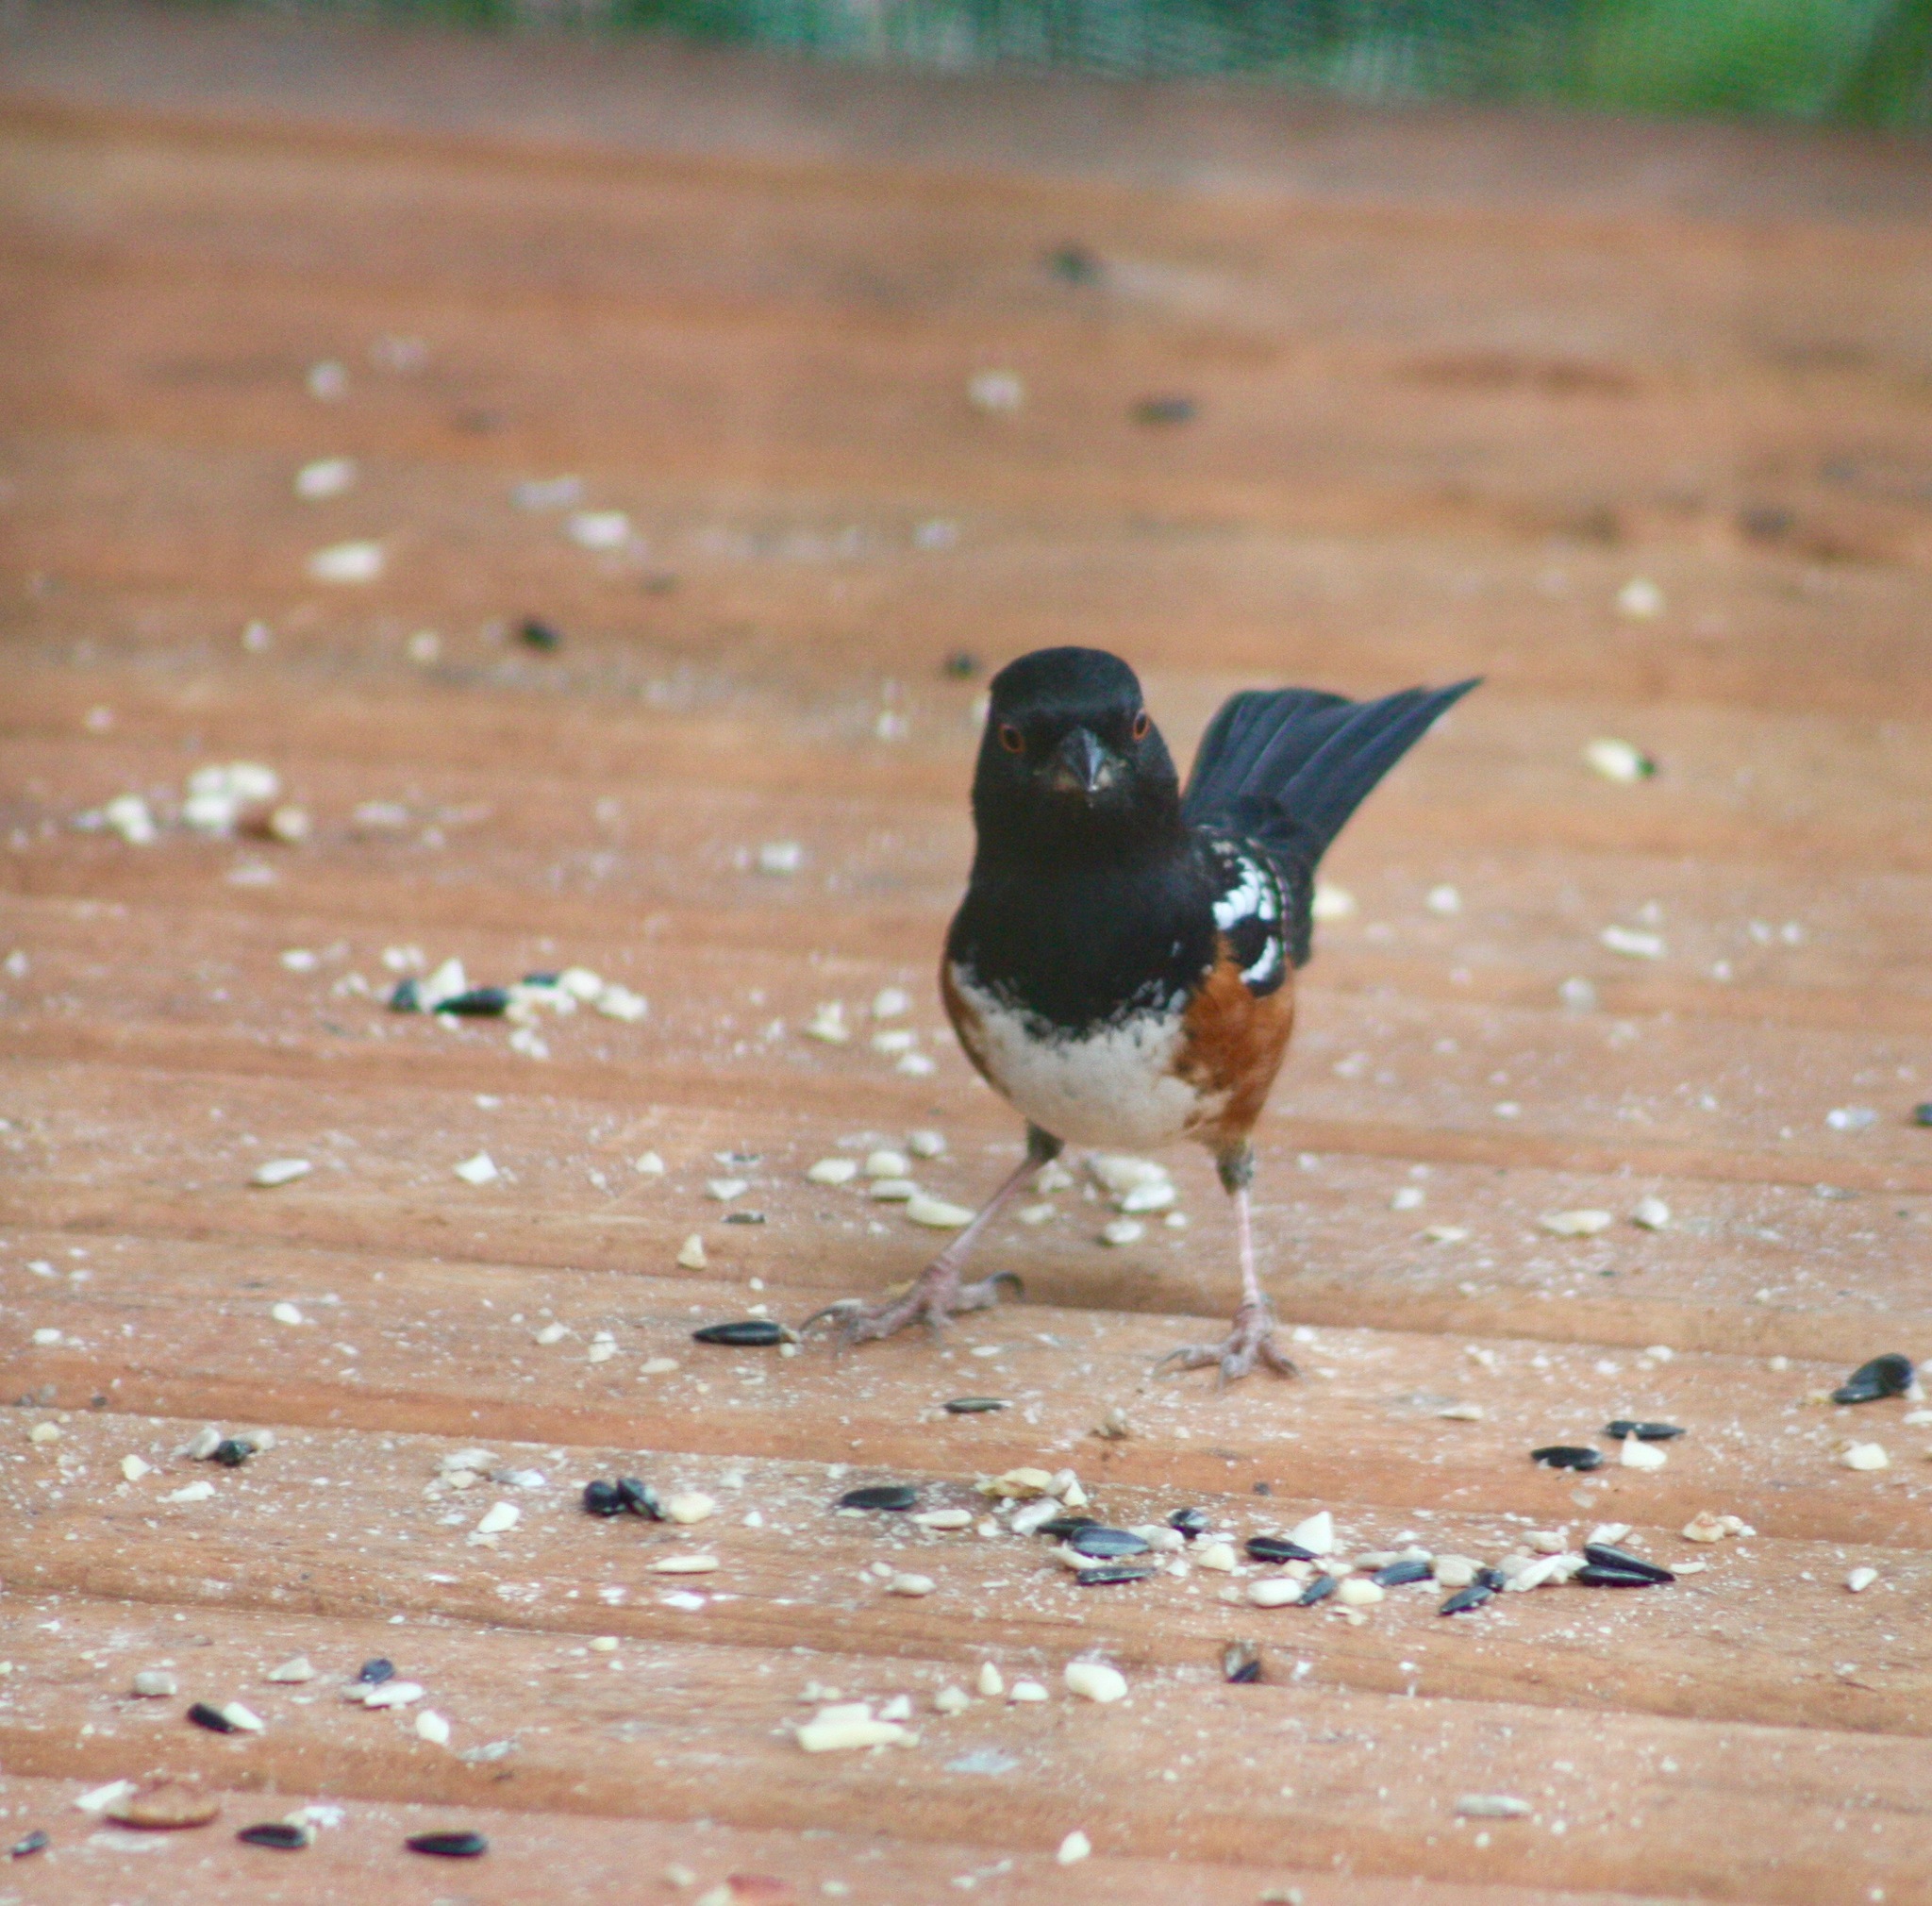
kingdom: Animalia
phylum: Chordata
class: Aves
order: Passeriformes
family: Passerellidae
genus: Pipilo
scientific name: Pipilo maculatus
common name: Spotted towhee
